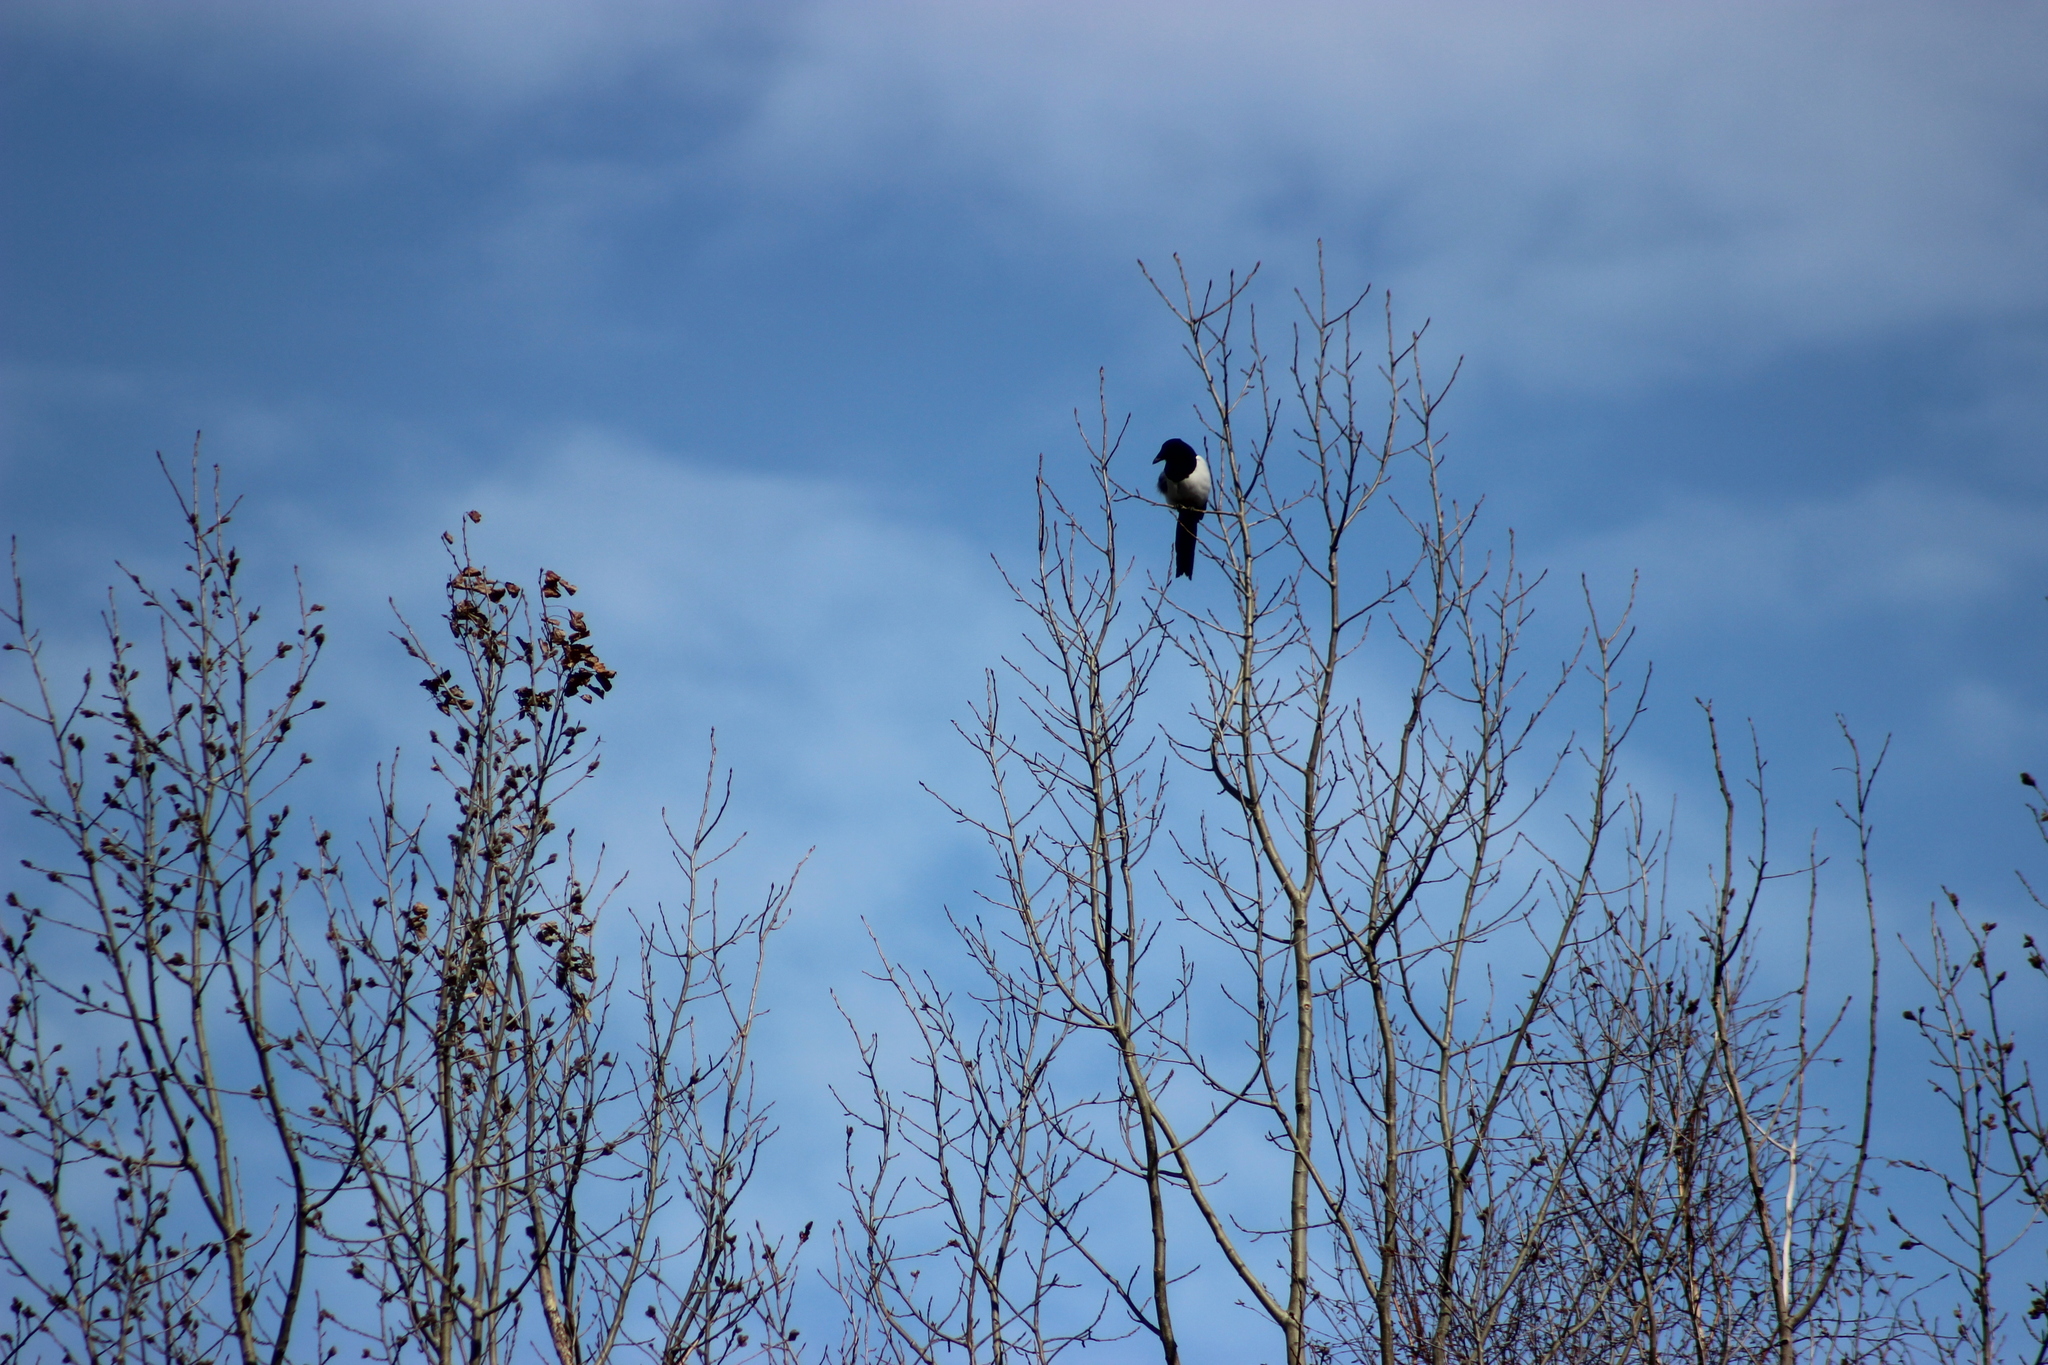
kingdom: Animalia
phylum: Chordata
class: Aves
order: Passeriformes
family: Corvidae
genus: Pica
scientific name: Pica pica
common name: Eurasian magpie
